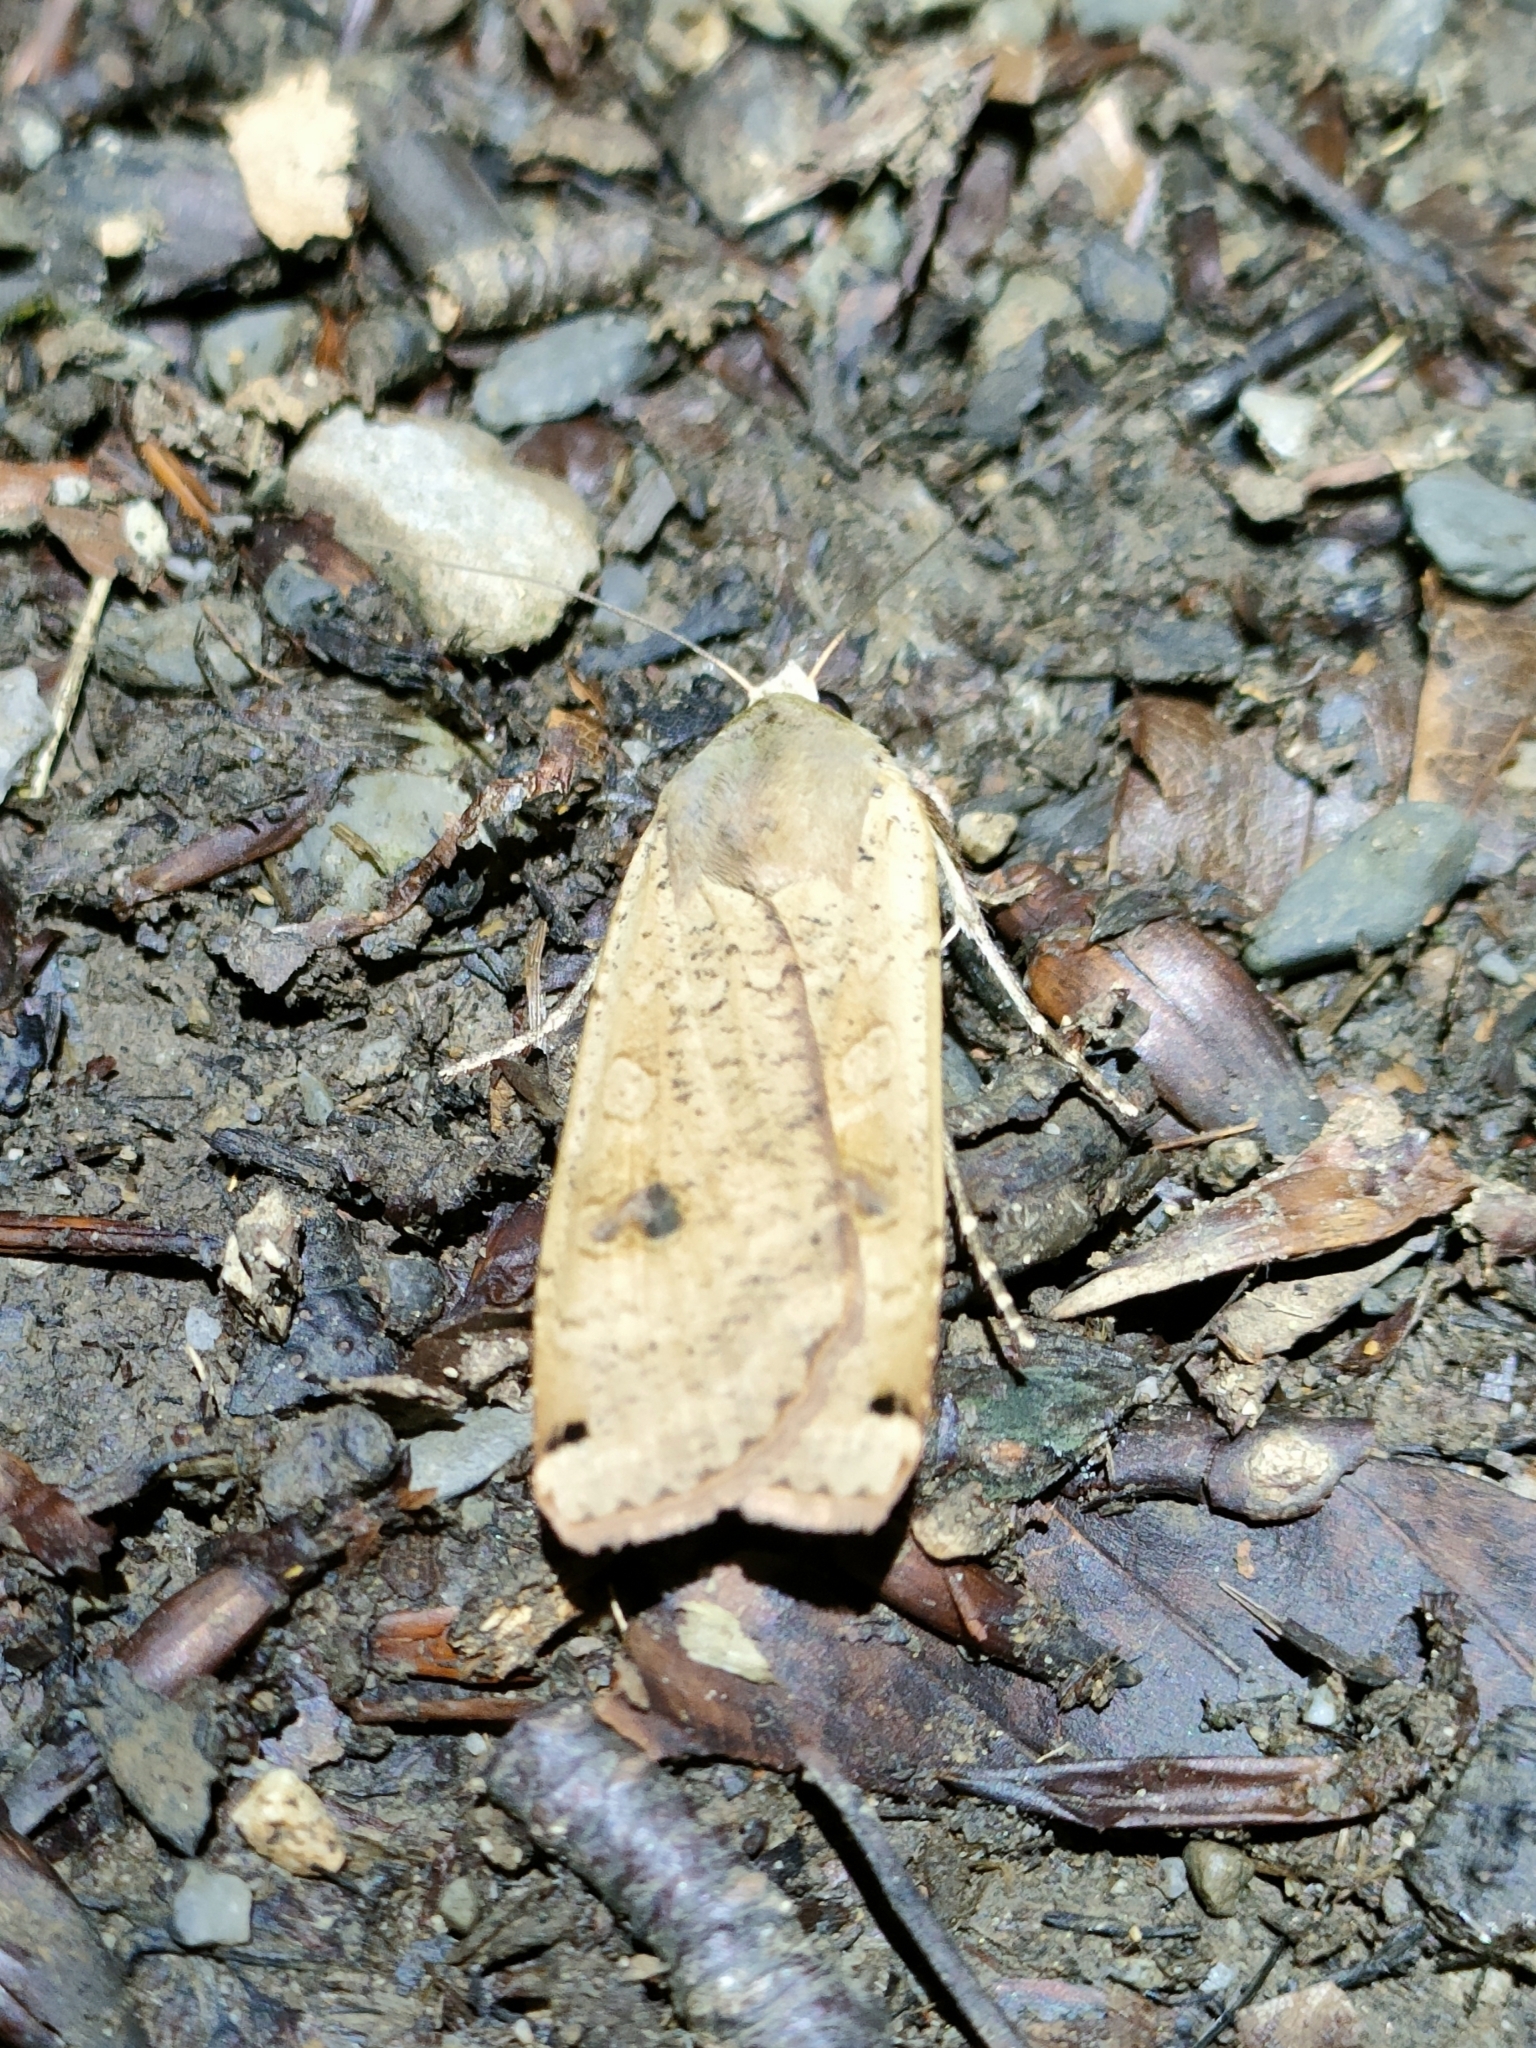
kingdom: Animalia
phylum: Arthropoda
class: Insecta
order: Lepidoptera
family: Noctuidae
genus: Noctua
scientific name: Noctua pronuba
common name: Large yellow underwing
